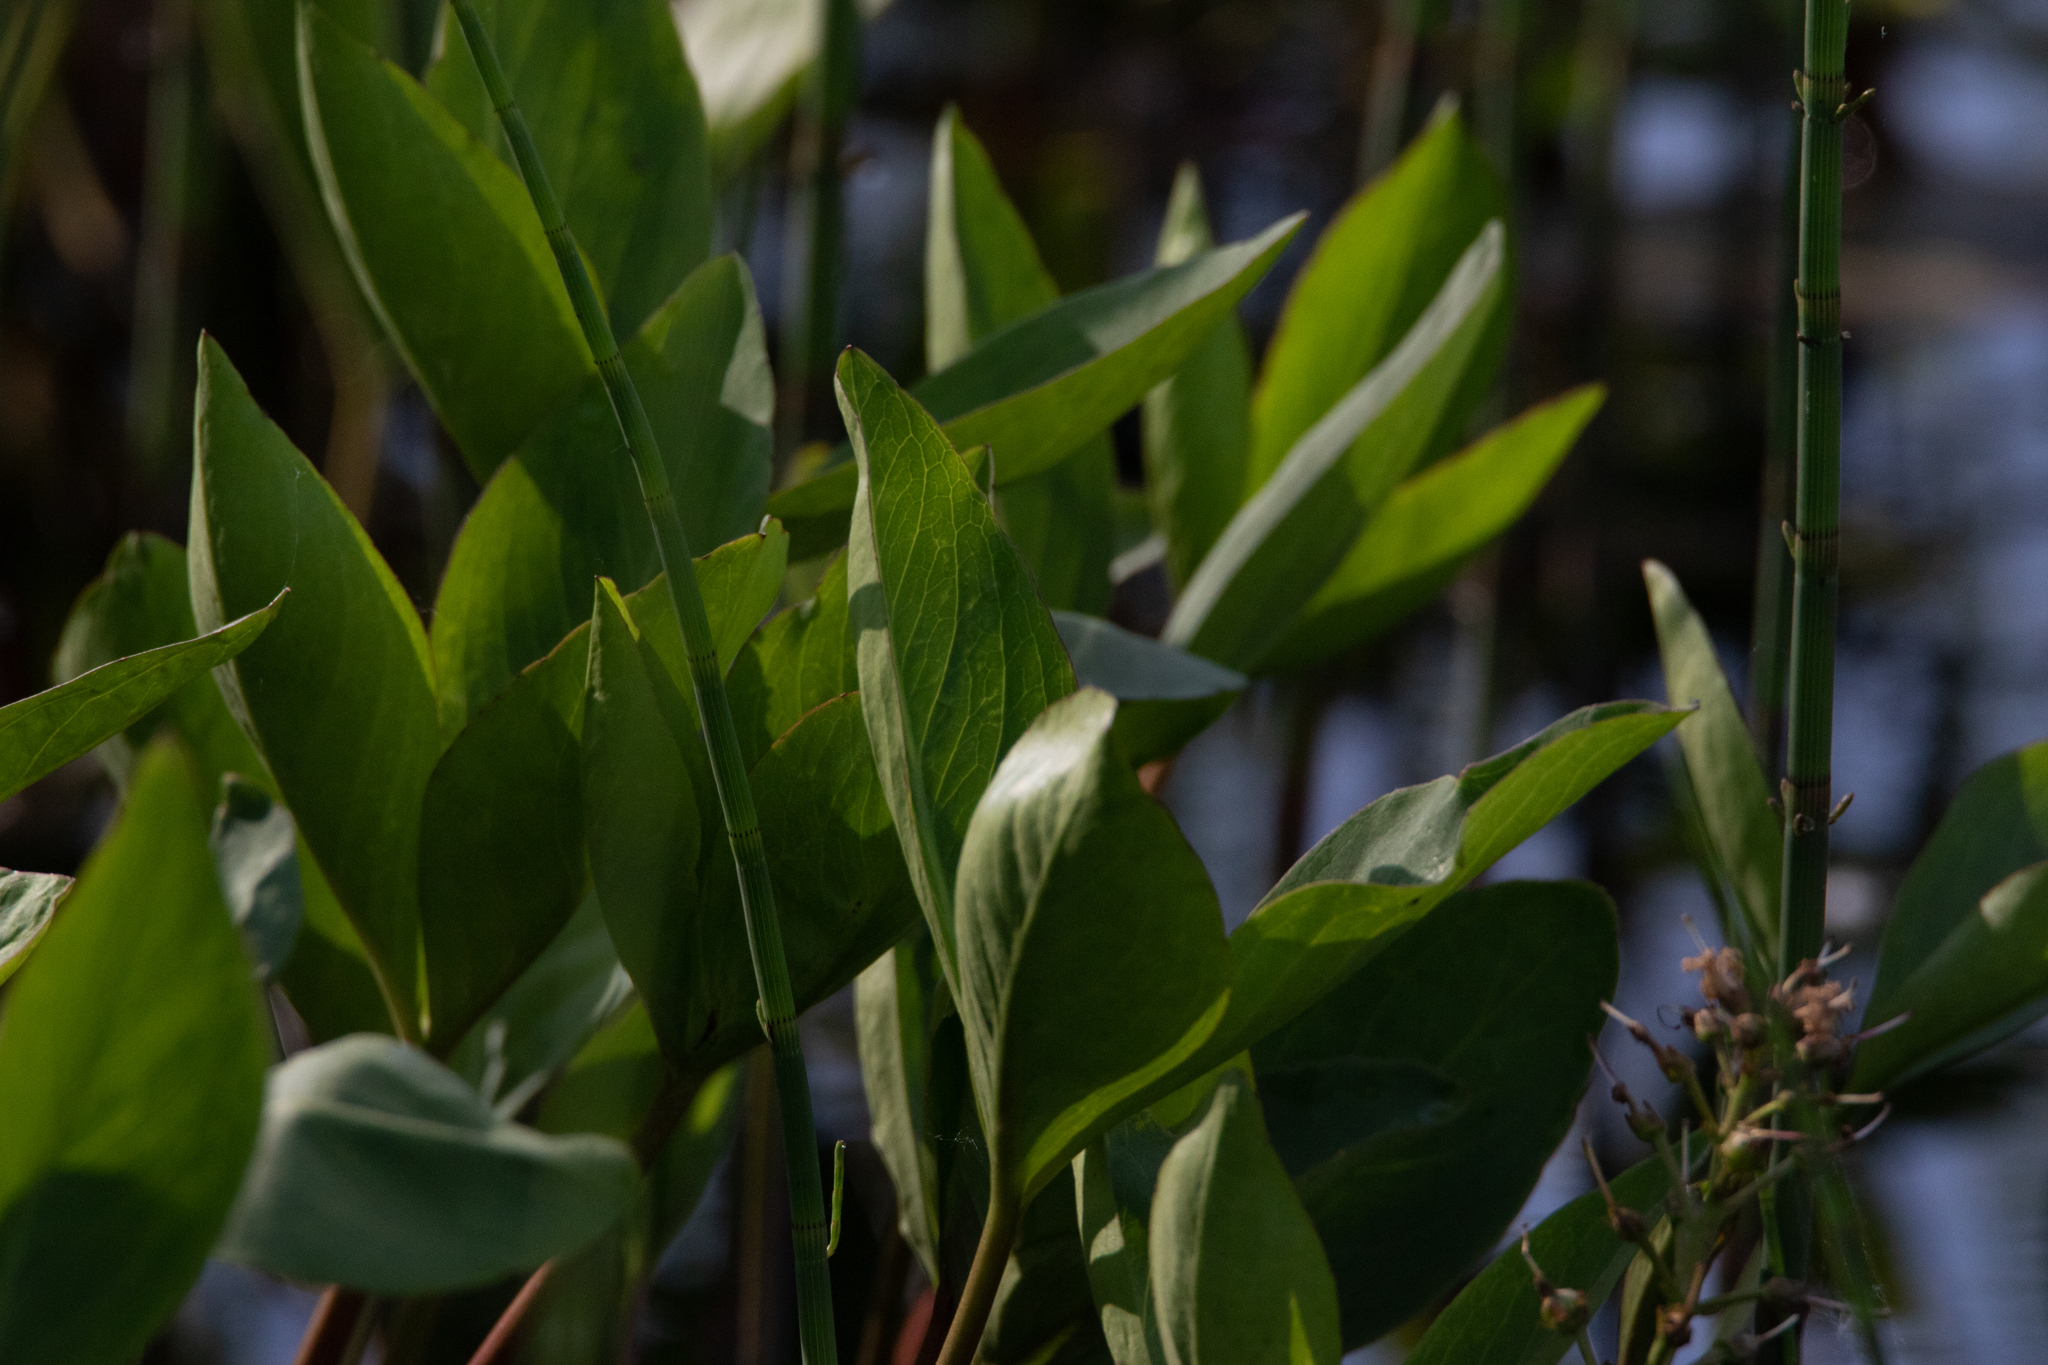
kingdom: Plantae
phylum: Tracheophyta
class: Magnoliopsida
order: Asterales
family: Menyanthaceae
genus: Menyanthes
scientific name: Menyanthes trifoliata
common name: Bogbean
